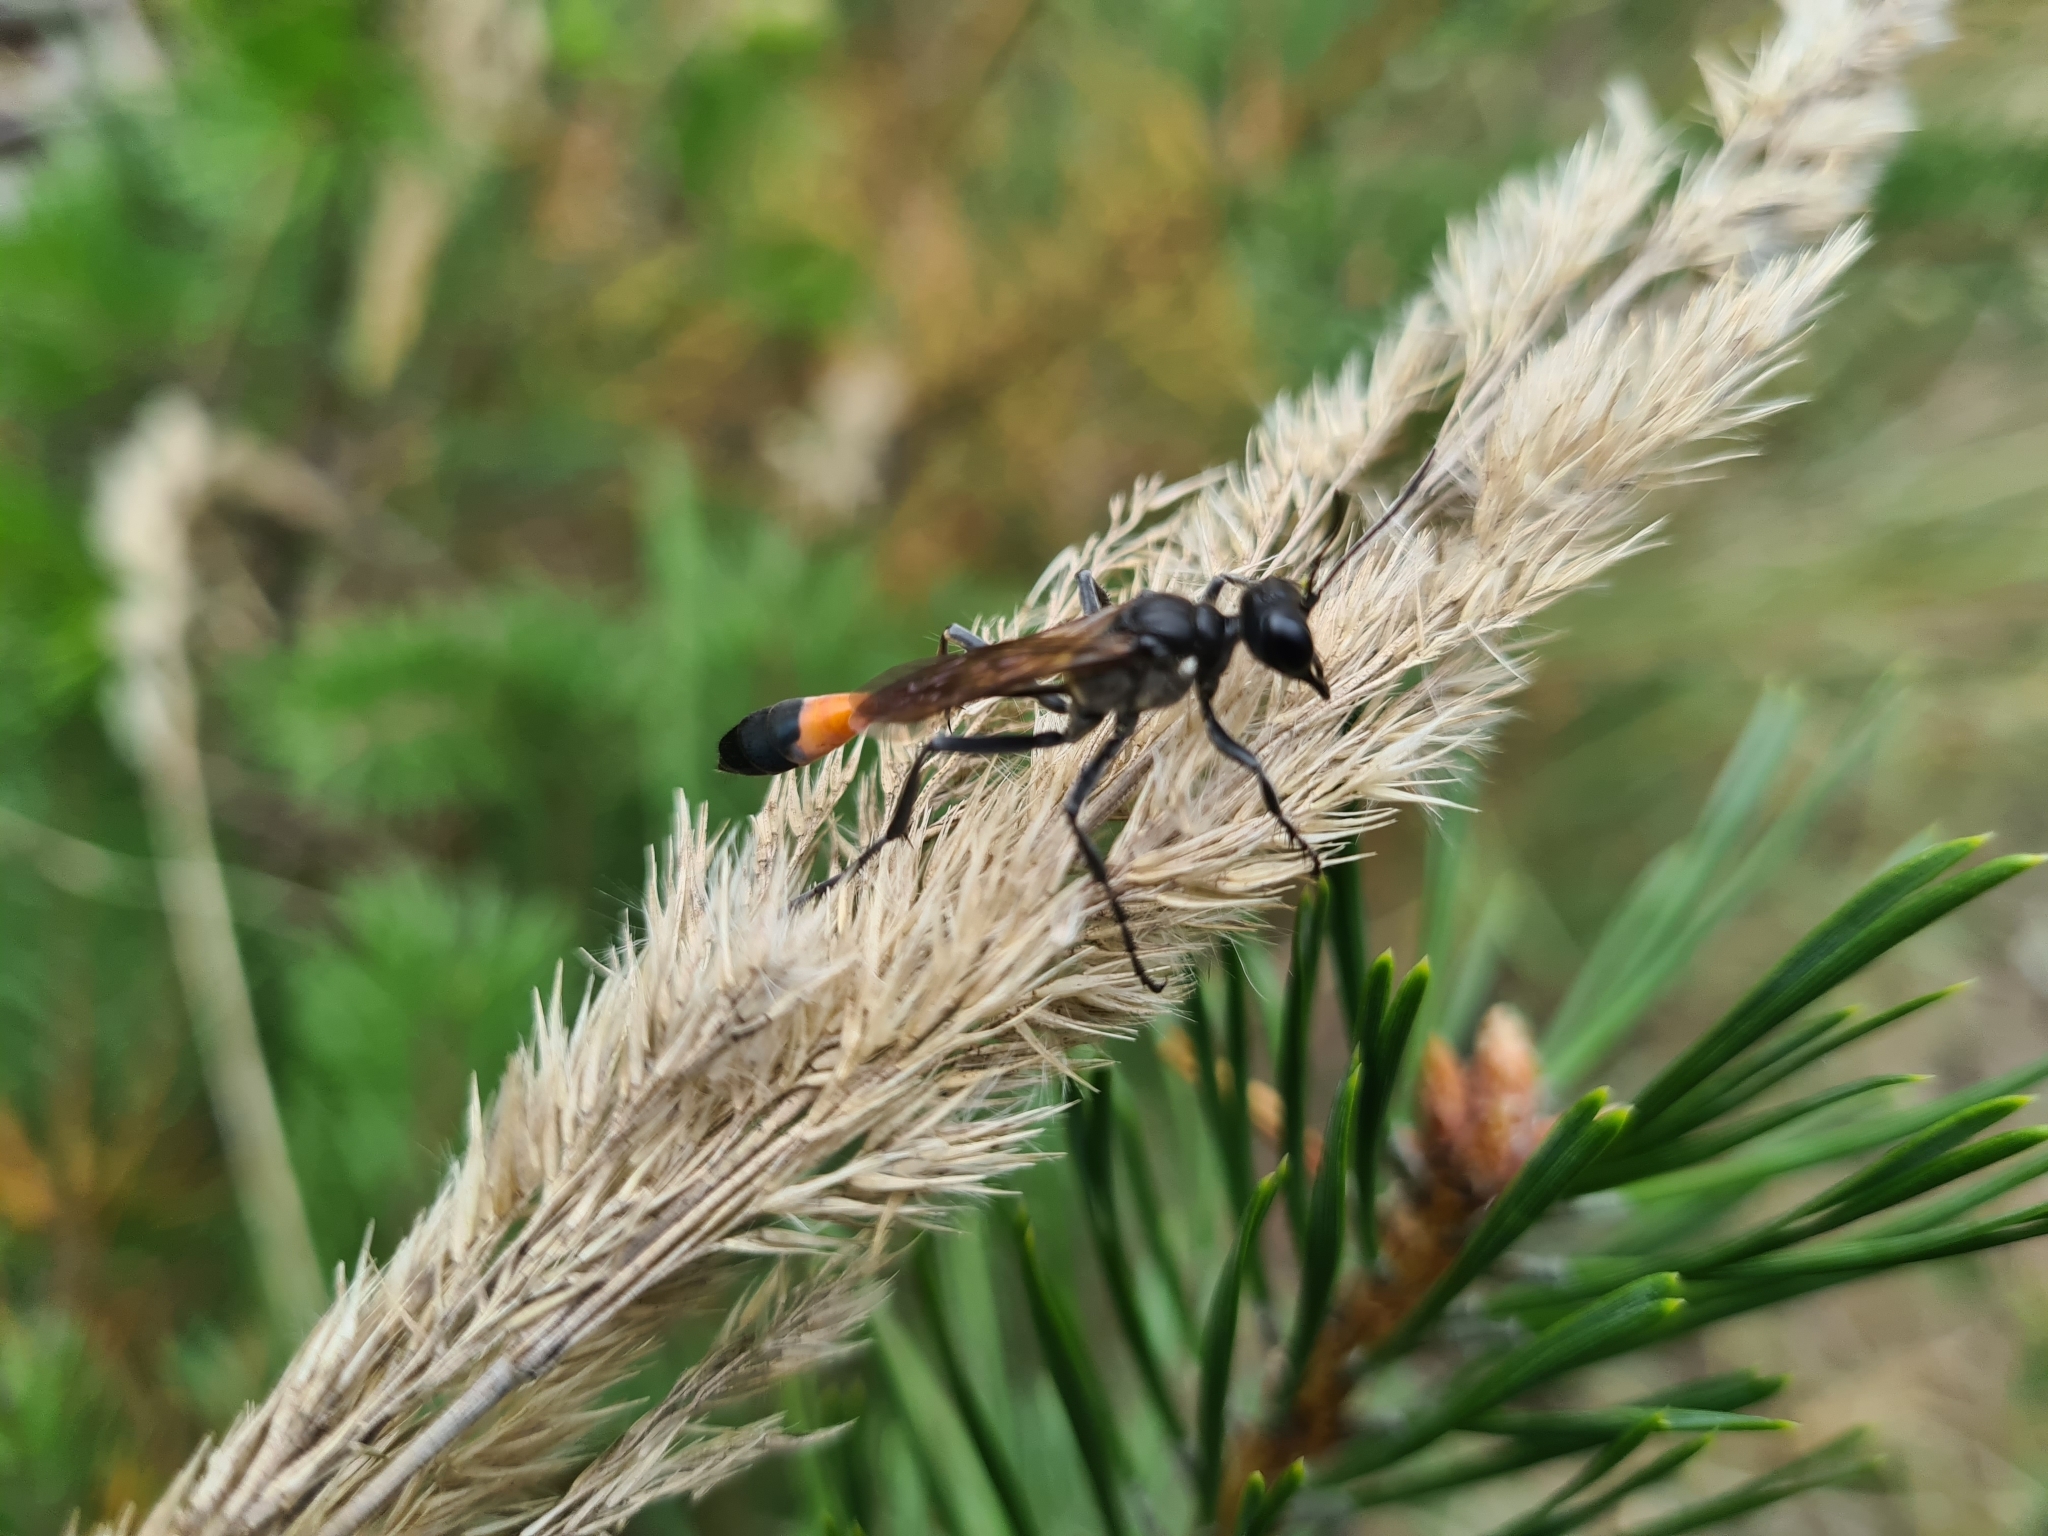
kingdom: Animalia
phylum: Arthropoda
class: Insecta
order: Hymenoptera
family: Sphecidae
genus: Ammophila
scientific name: Ammophila sabulosa
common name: Red banded sand wasp
